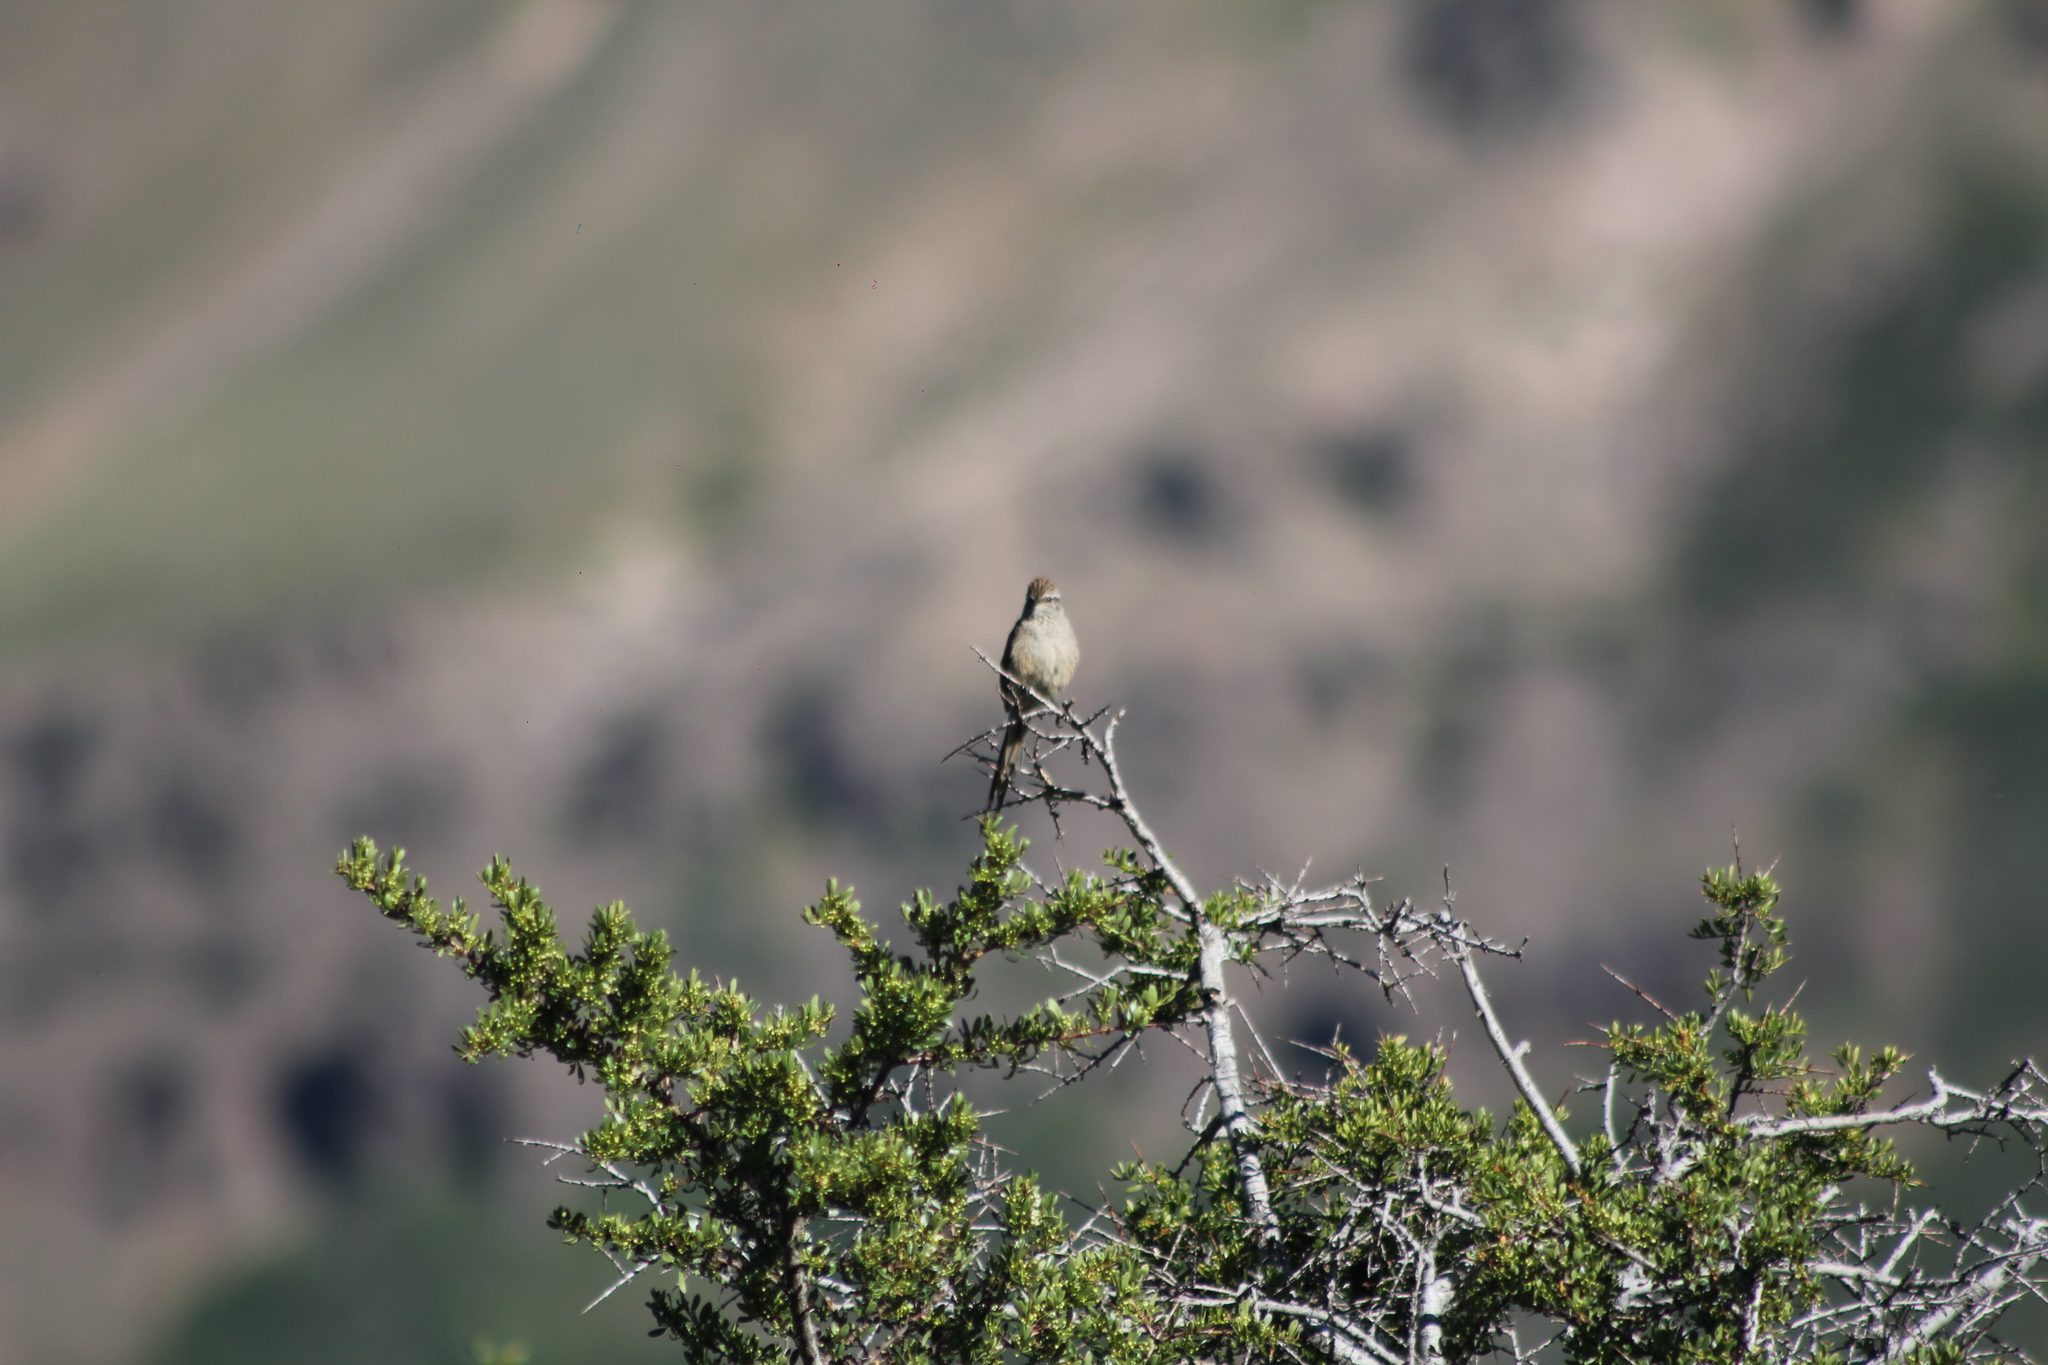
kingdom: Animalia
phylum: Chordata
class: Aves
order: Passeriformes
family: Furnariidae
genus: Leptasthenura
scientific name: Leptasthenura aegithaloides
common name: Plain-mantled tit-spinetail
